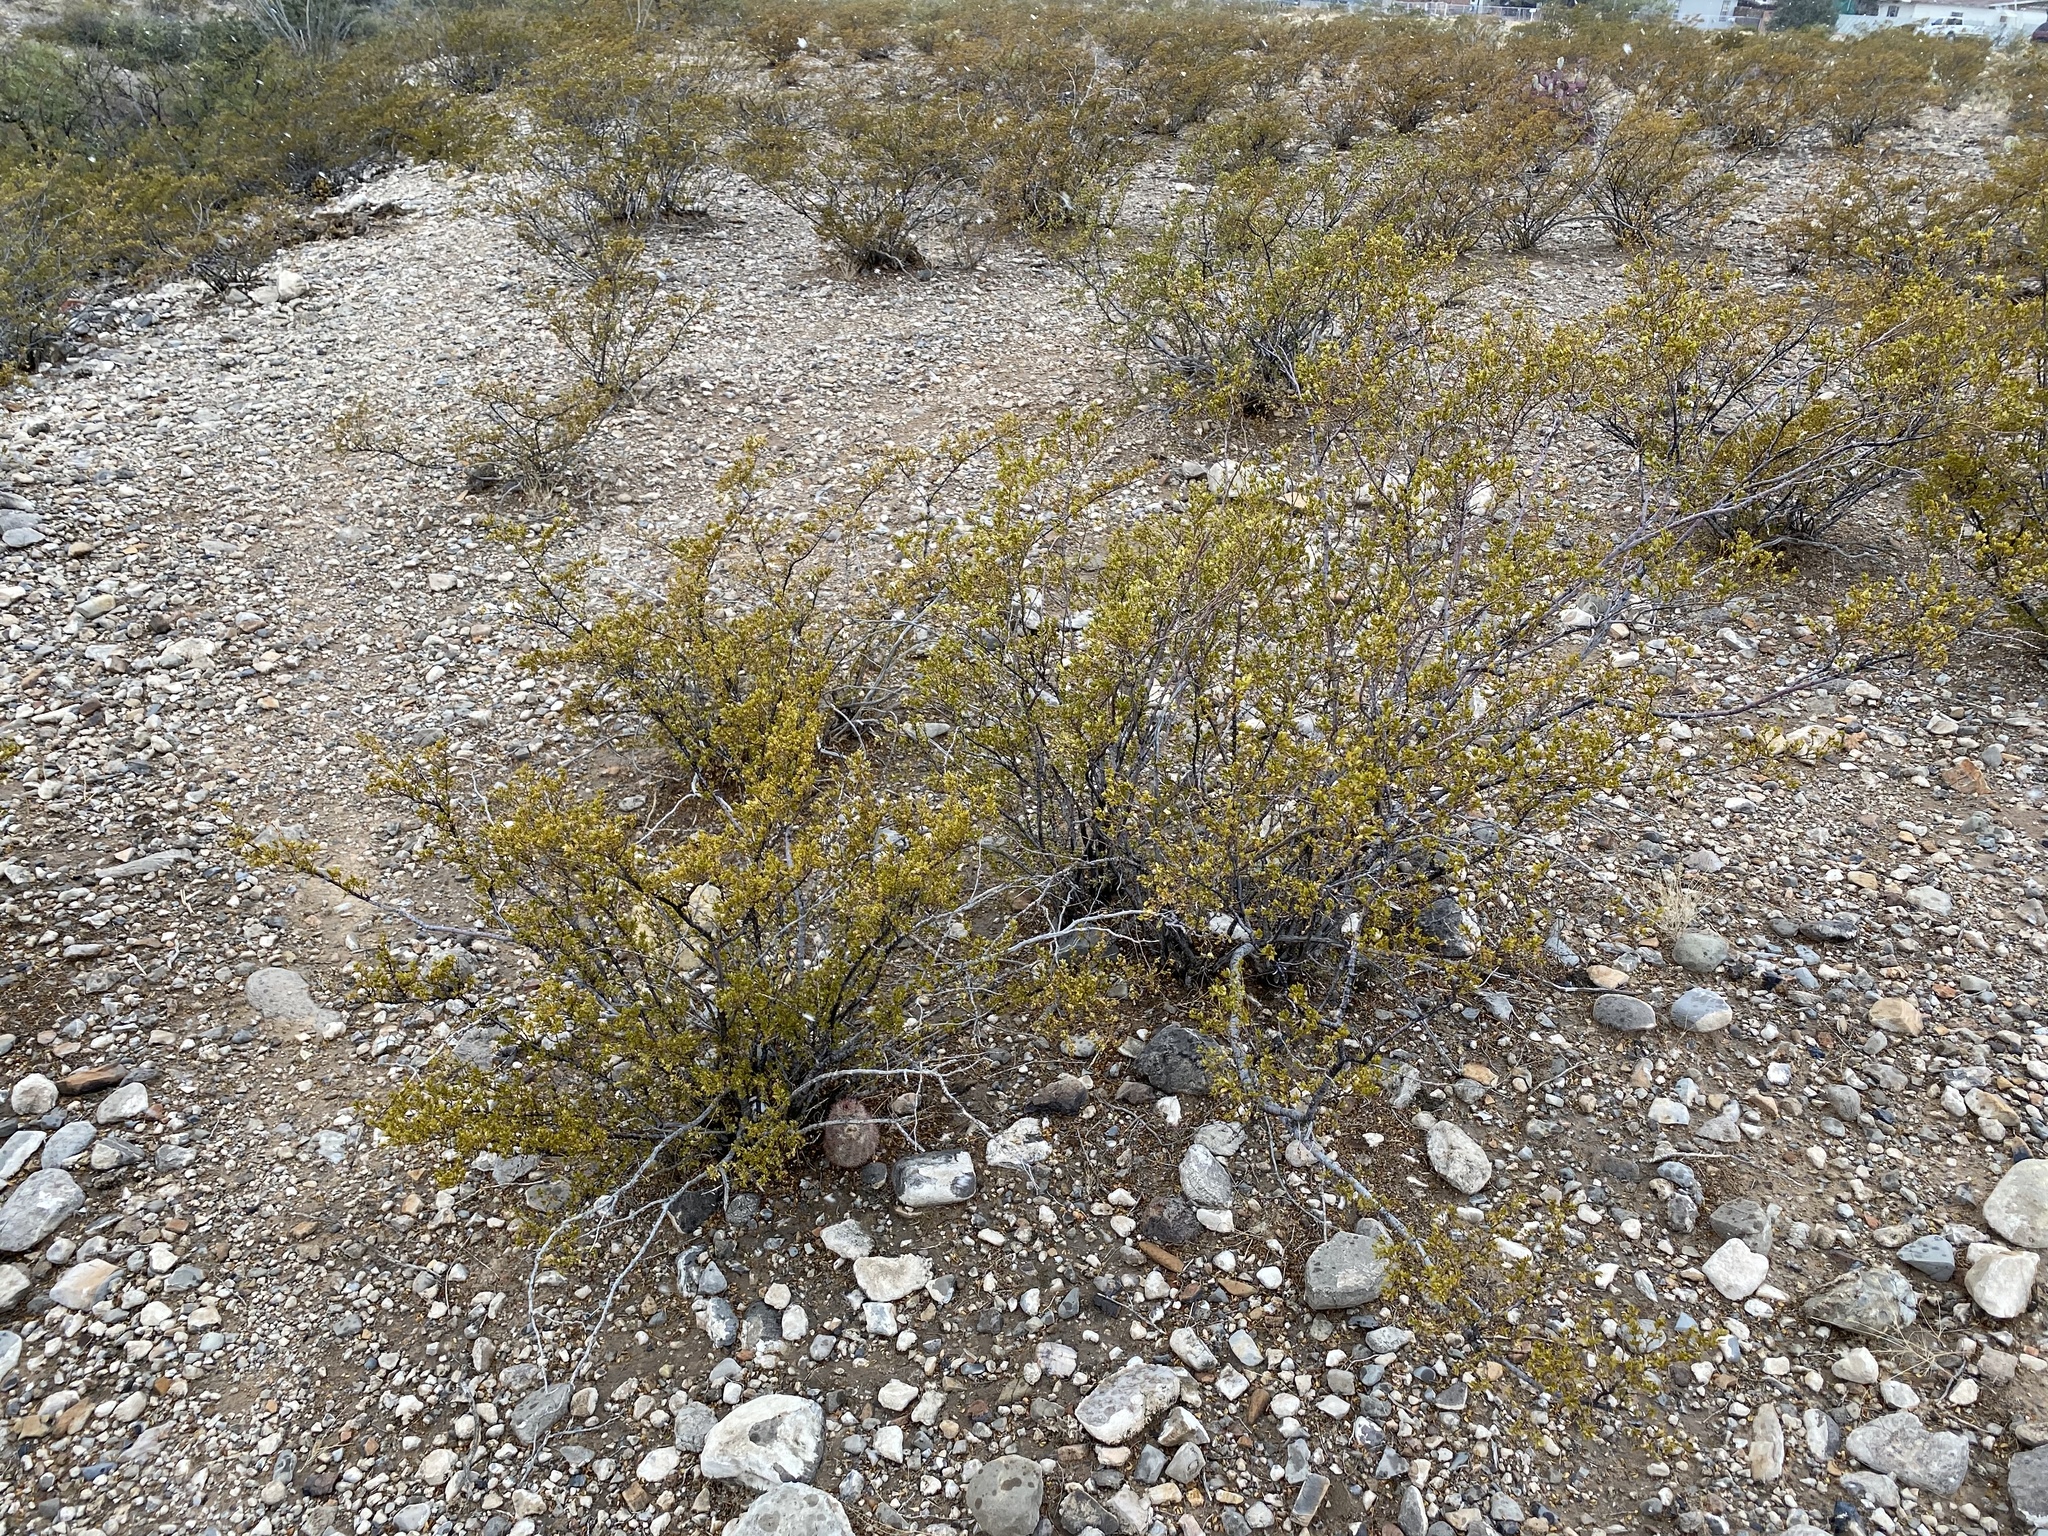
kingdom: Plantae
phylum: Tracheophyta
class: Magnoliopsida
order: Zygophyllales
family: Zygophyllaceae
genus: Larrea
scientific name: Larrea tridentata
